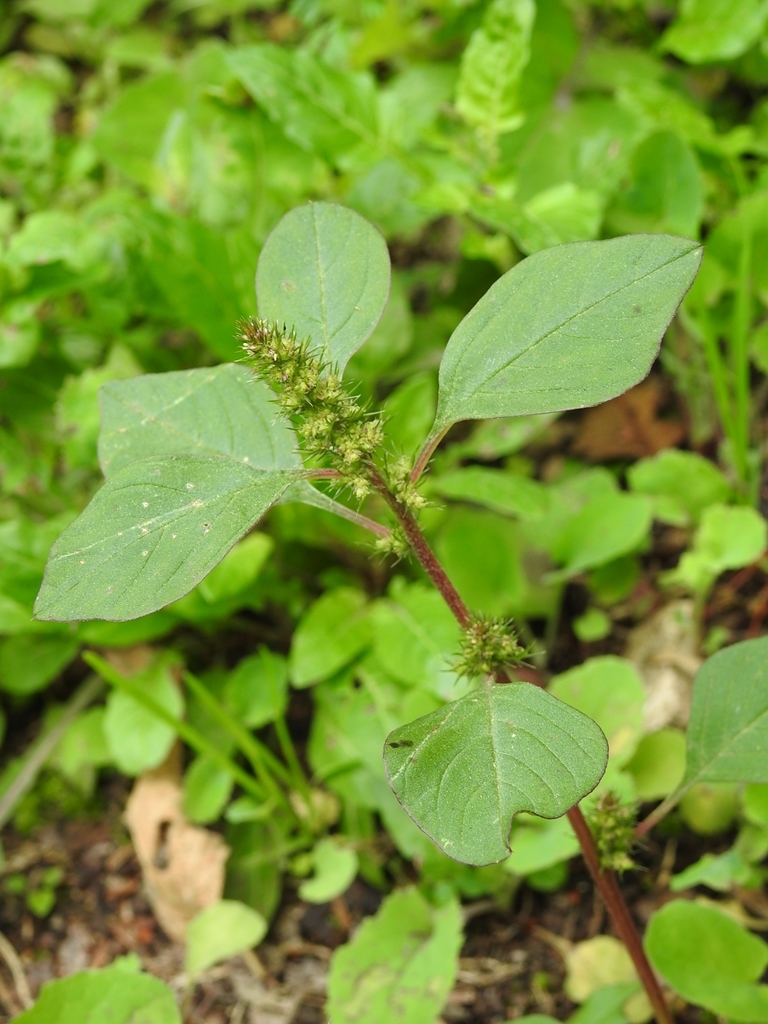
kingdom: Plantae
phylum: Tracheophyta
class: Magnoliopsida
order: Caryophyllales
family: Amaranthaceae
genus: Amaranthus
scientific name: Amaranthus hybridus
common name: Green amaranth
